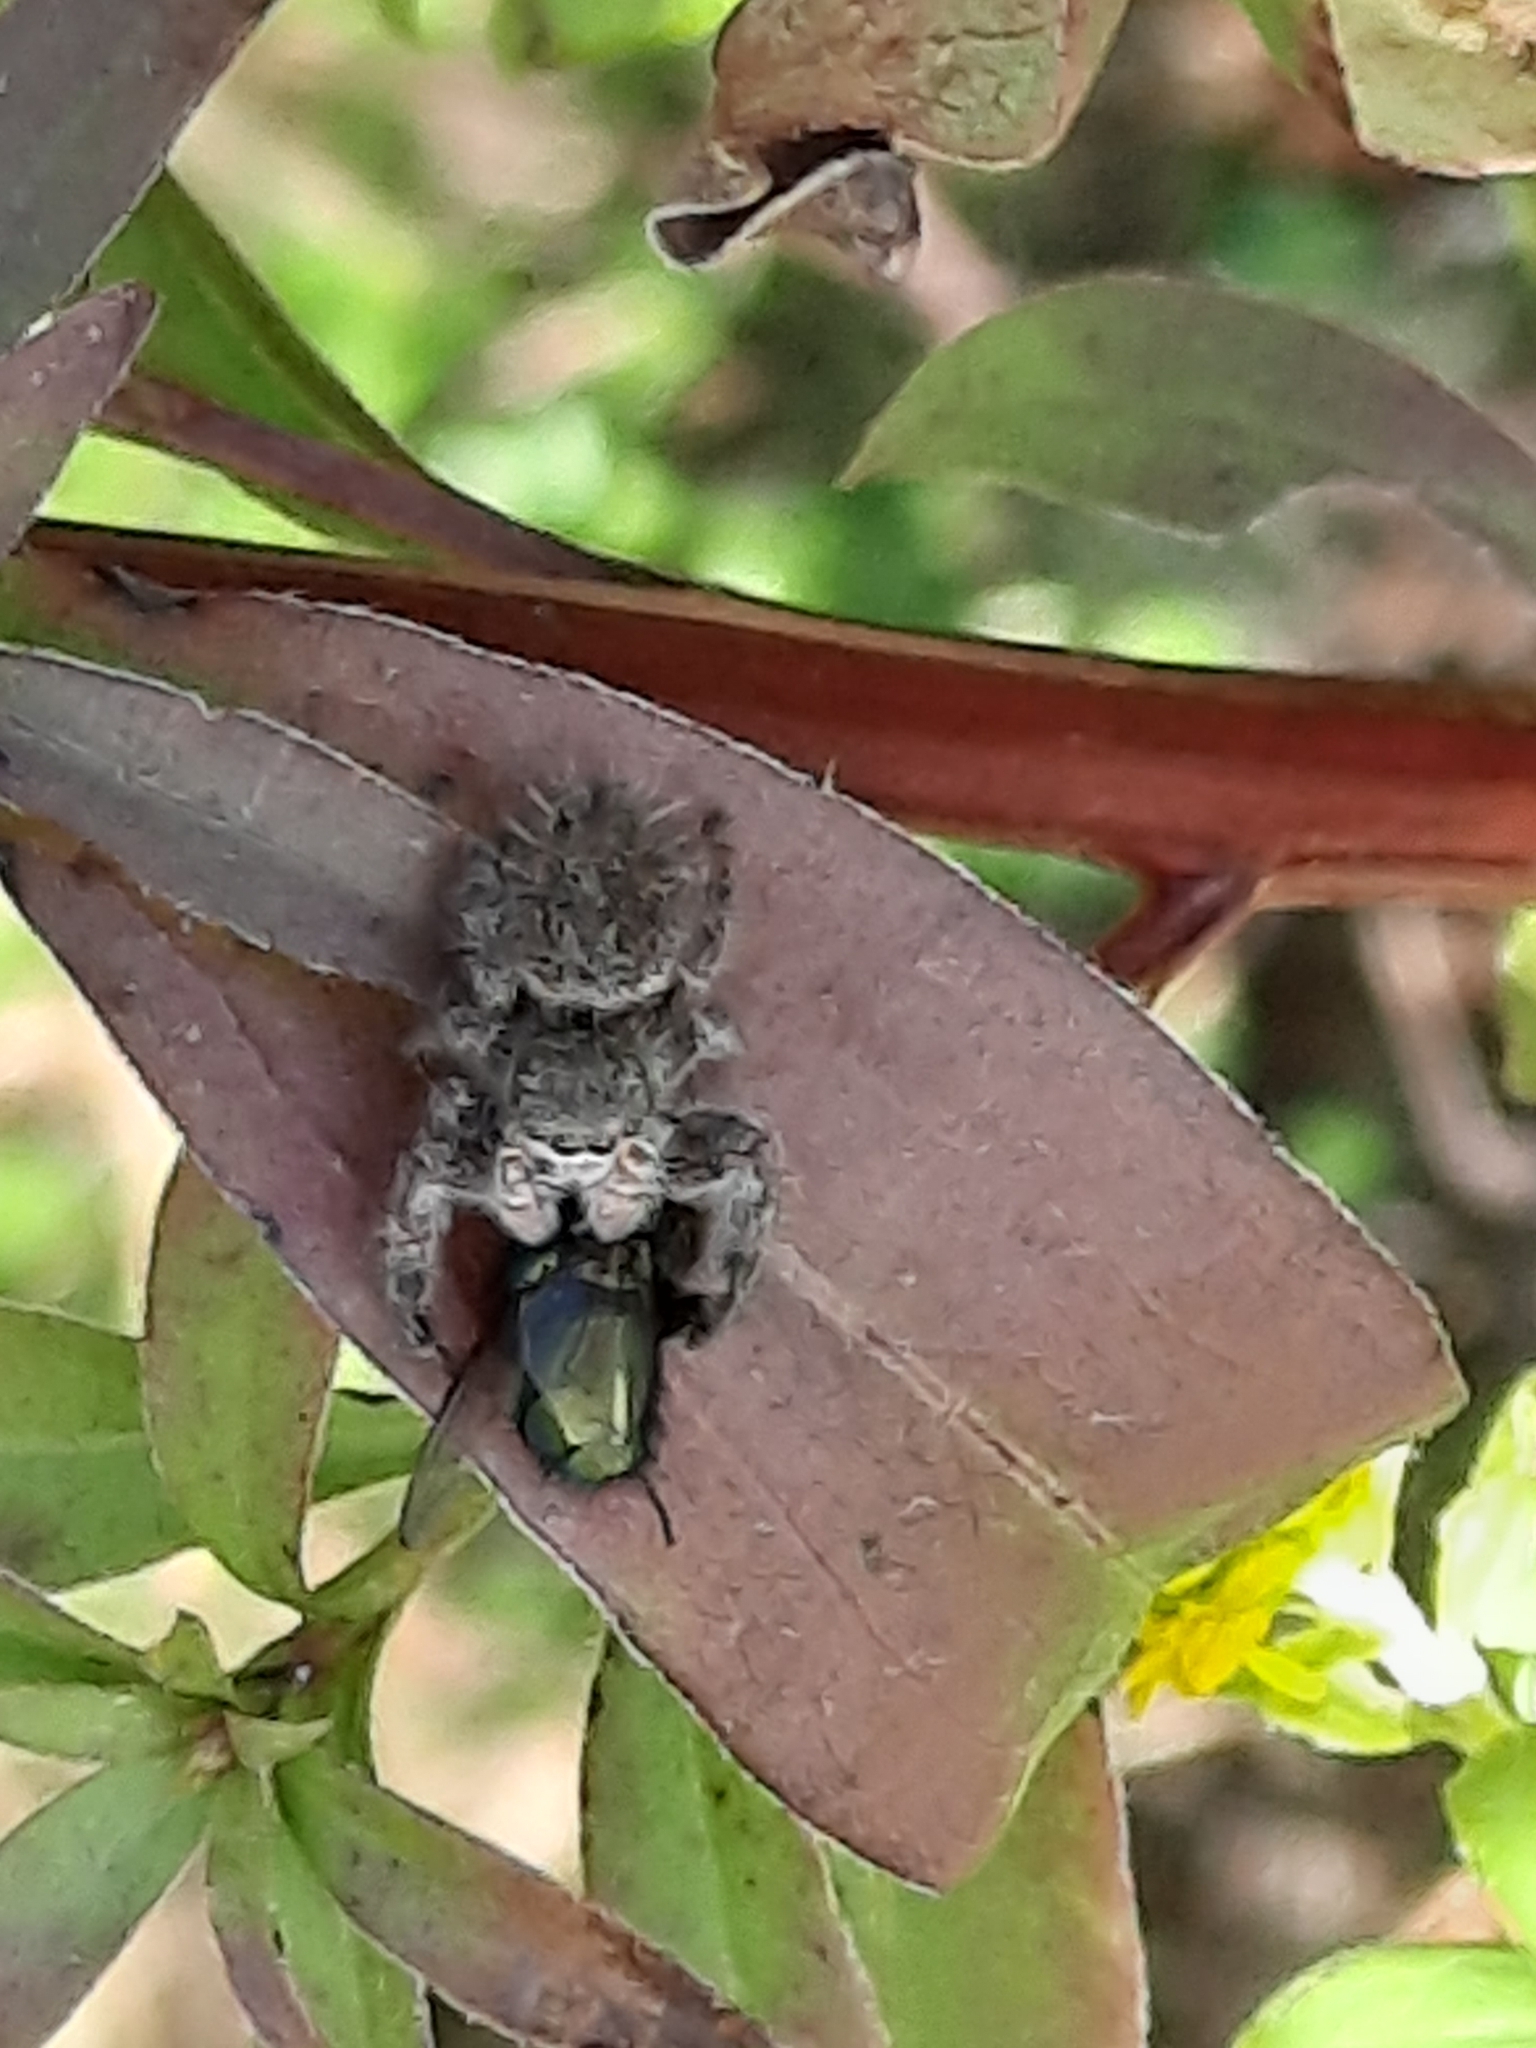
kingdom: Animalia
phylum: Arthropoda
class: Arachnida
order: Araneae
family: Salticidae
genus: Phidippus
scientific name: Phidippus princeps
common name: Grayish jumping spider
